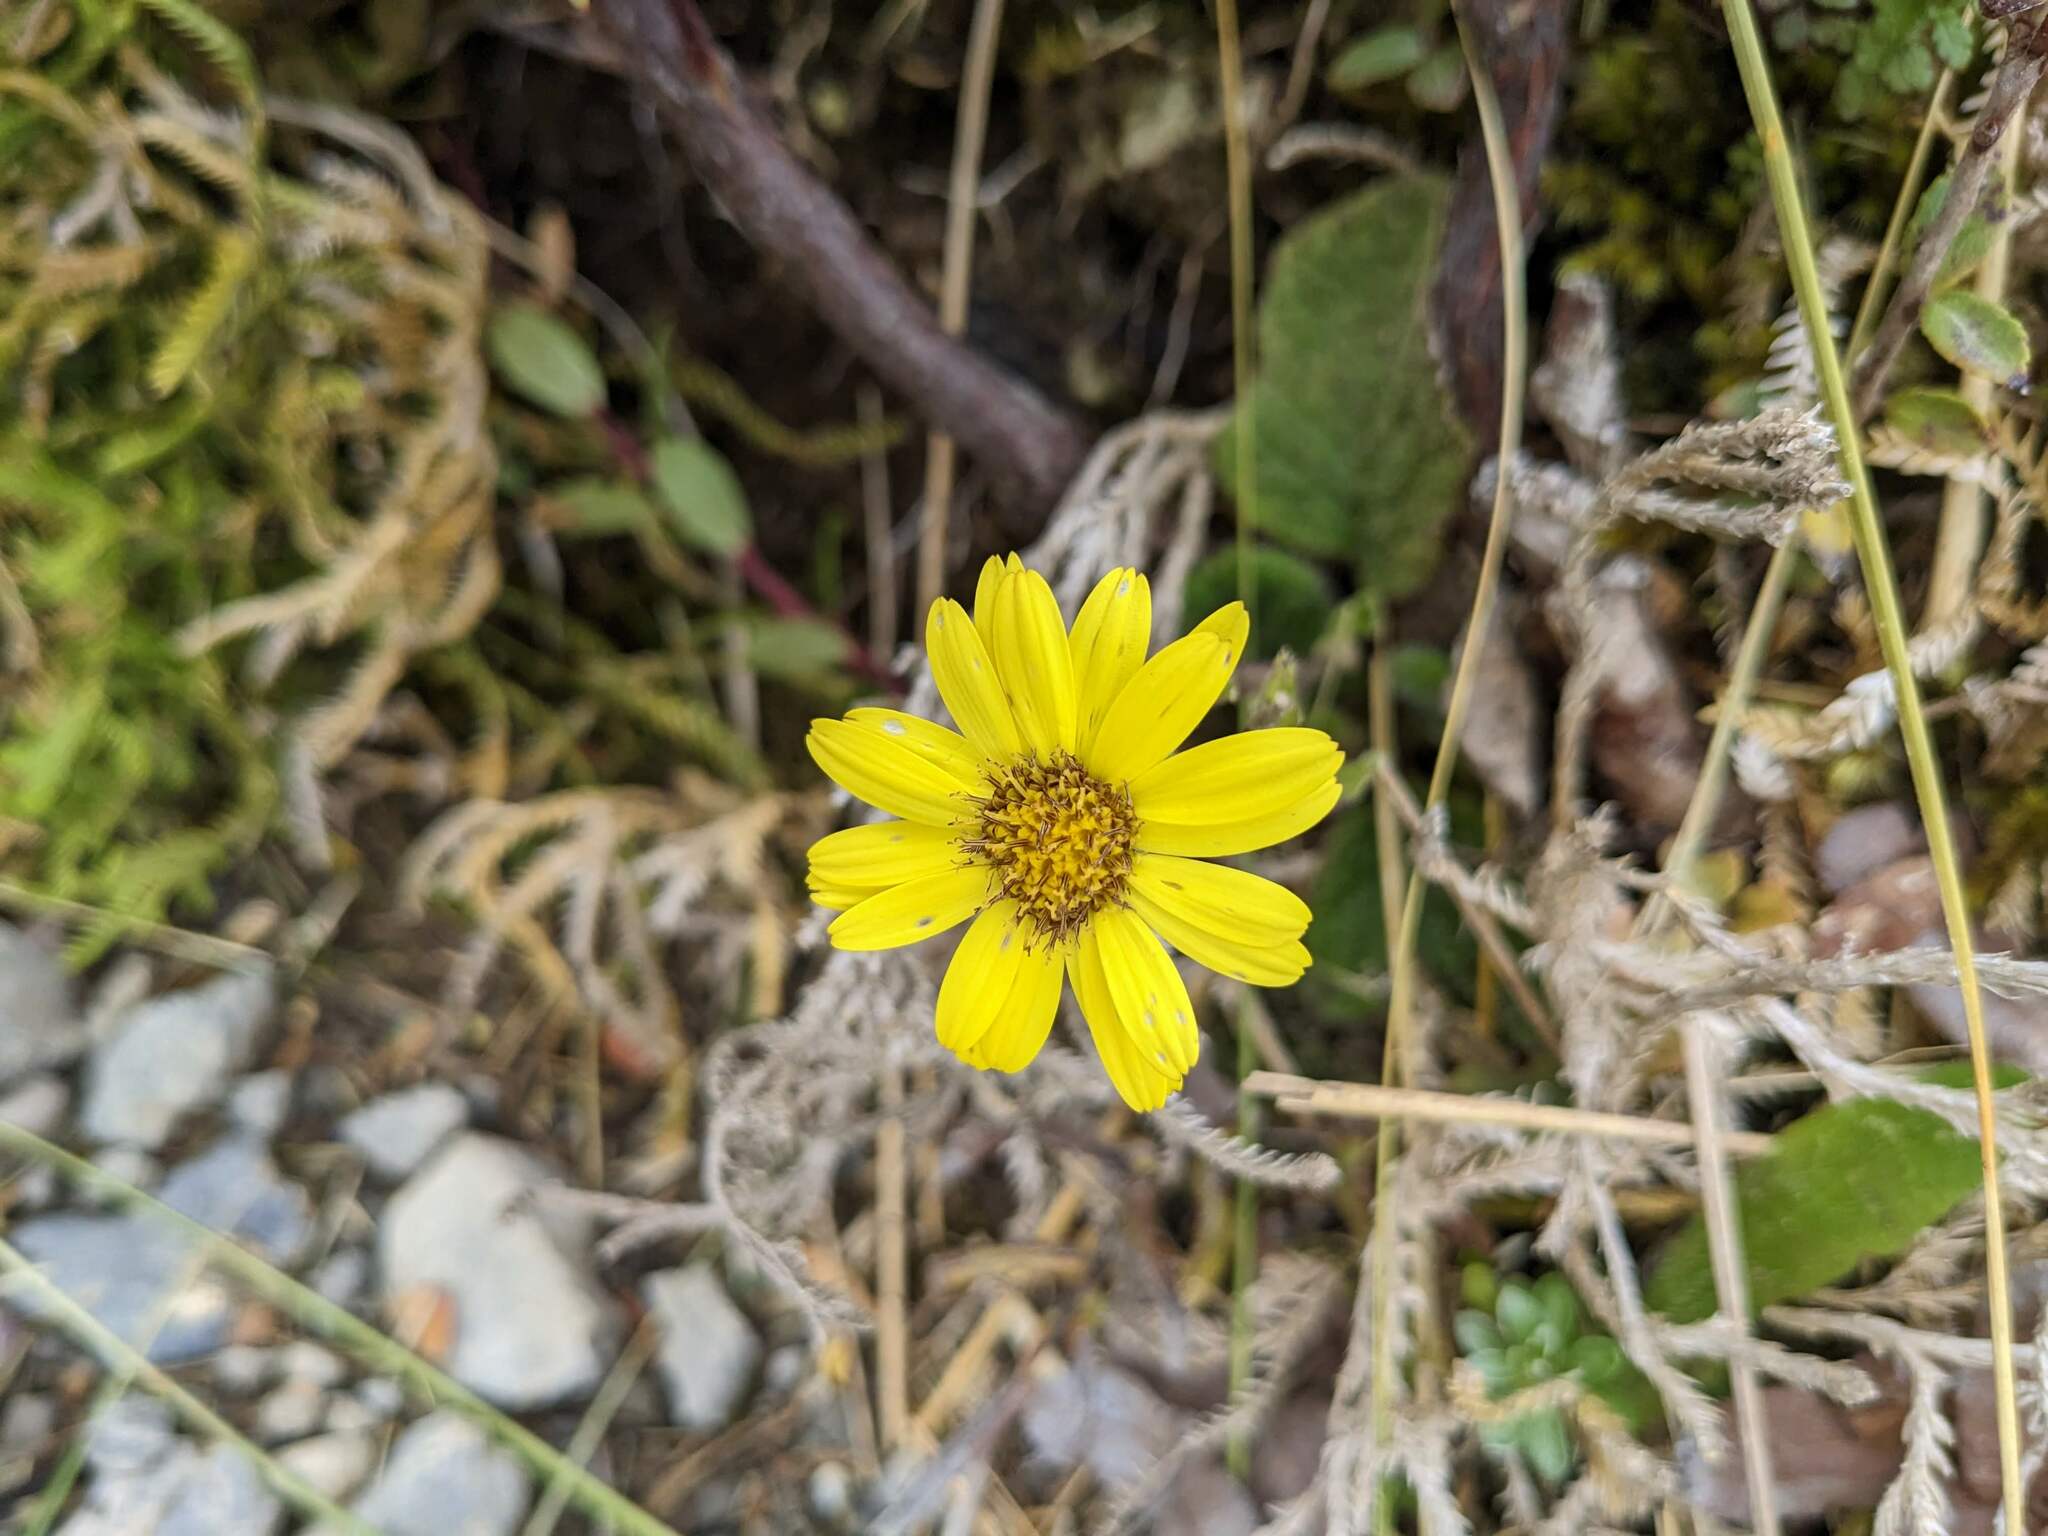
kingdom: Plantae
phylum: Tracheophyta
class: Magnoliopsida
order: Asterales
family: Asteraceae
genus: Brachyglottis
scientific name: Brachyglottis lagopus
